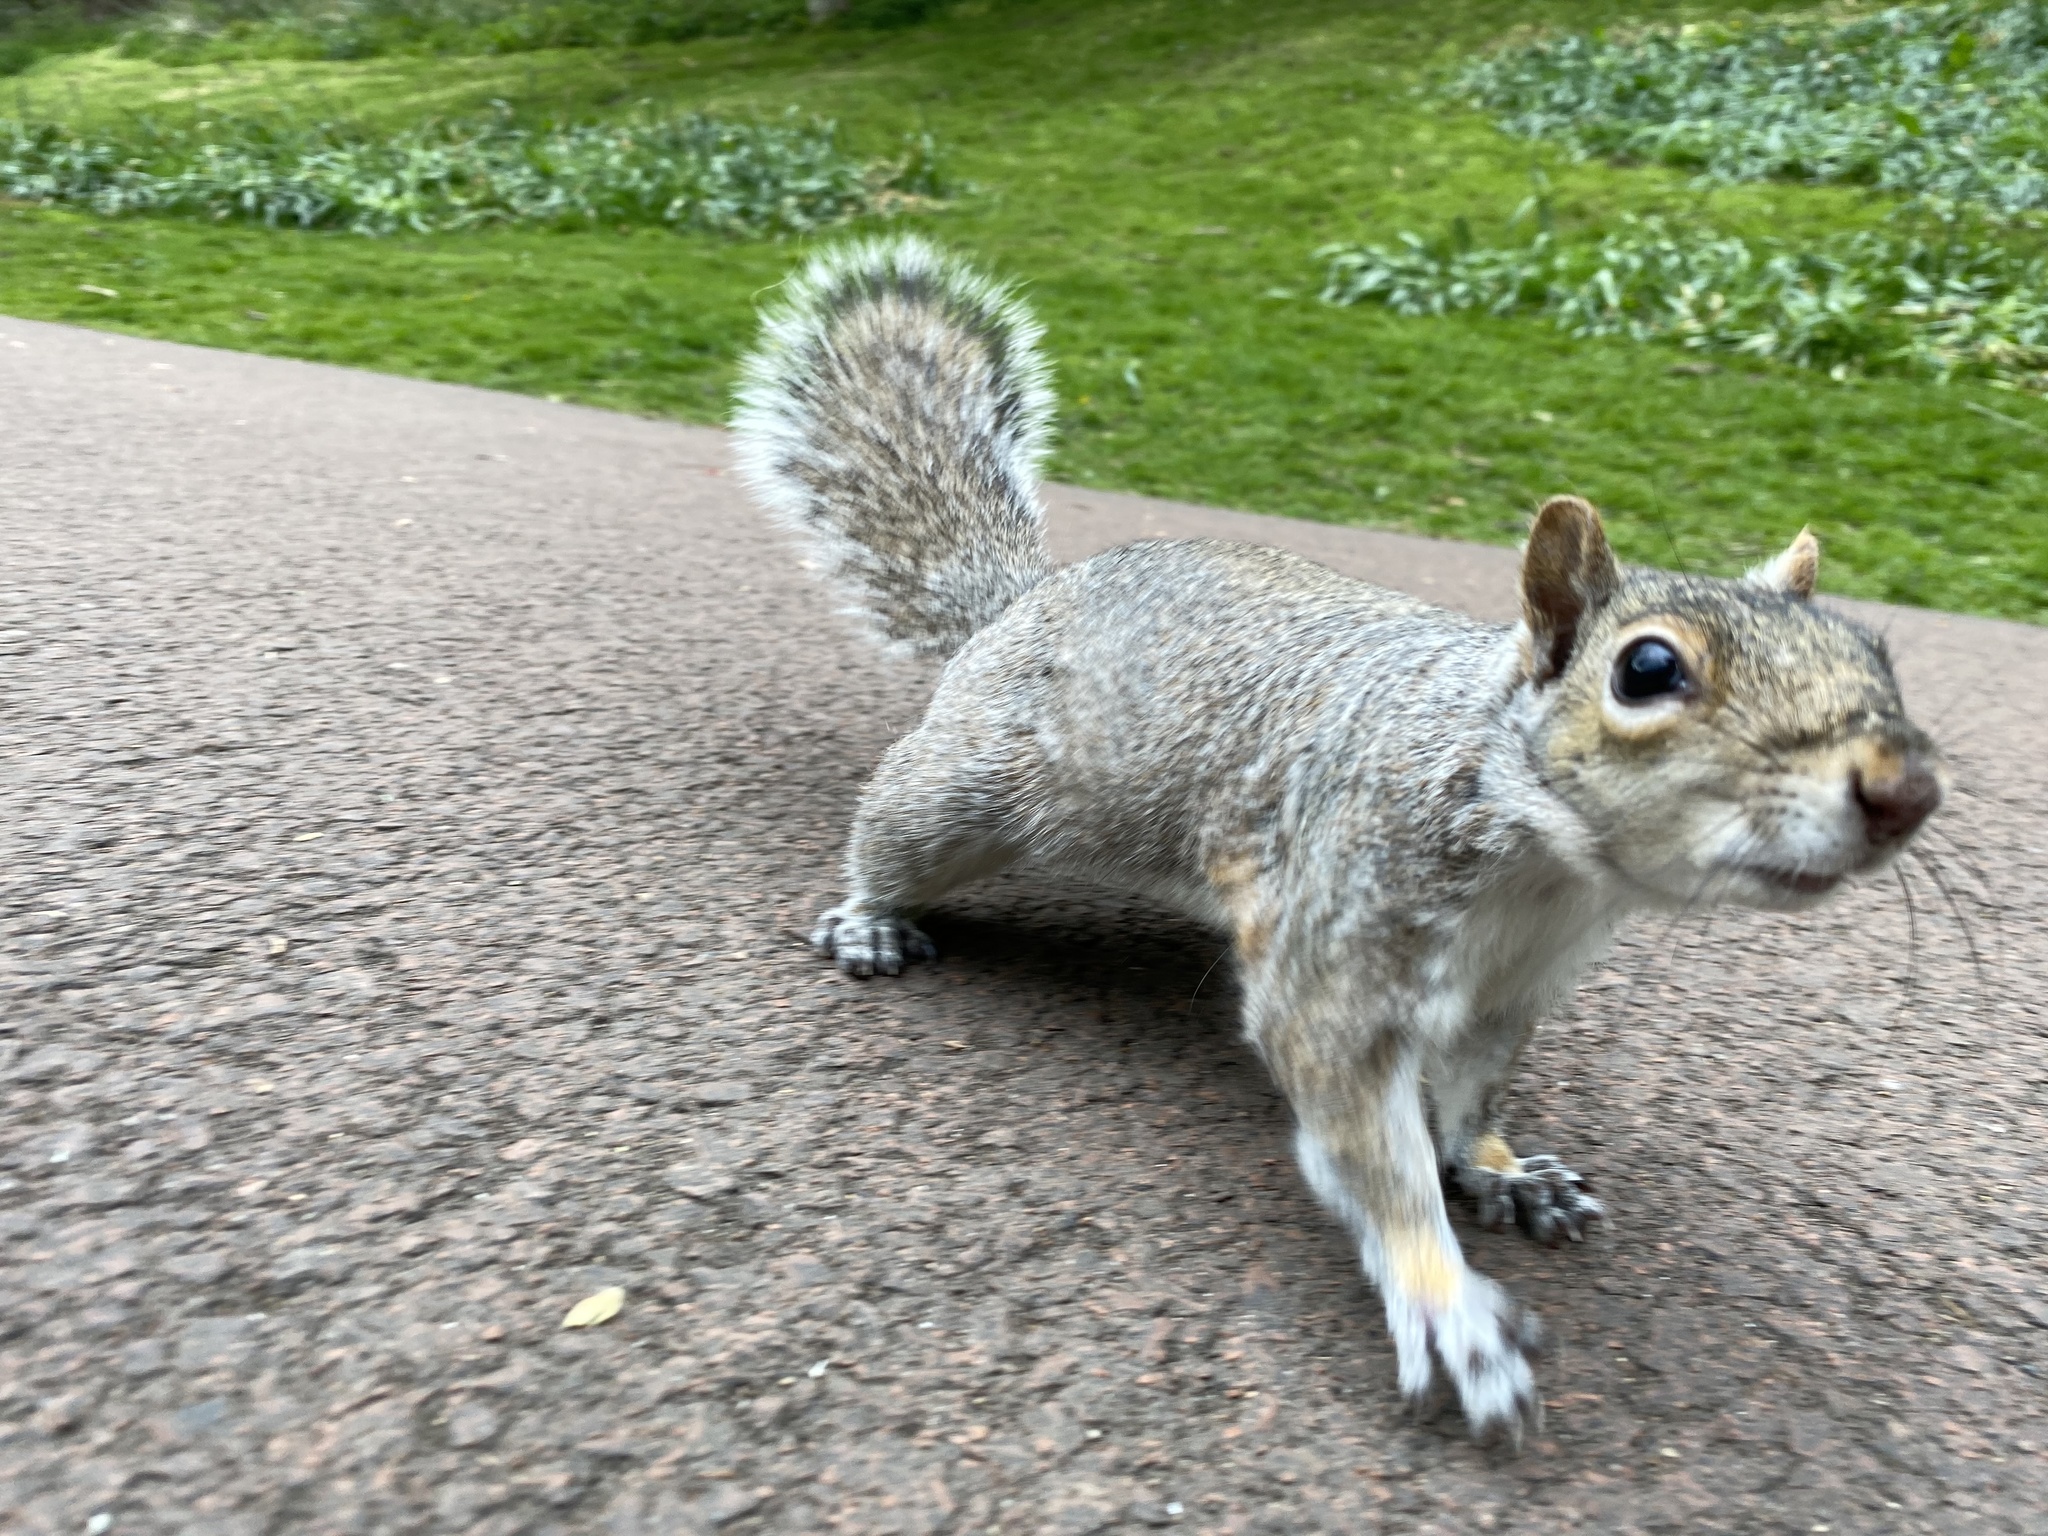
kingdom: Animalia
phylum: Chordata
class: Mammalia
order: Rodentia
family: Sciuridae
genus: Sciurus
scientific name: Sciurus carolinensis
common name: Eastern gray squirrel
